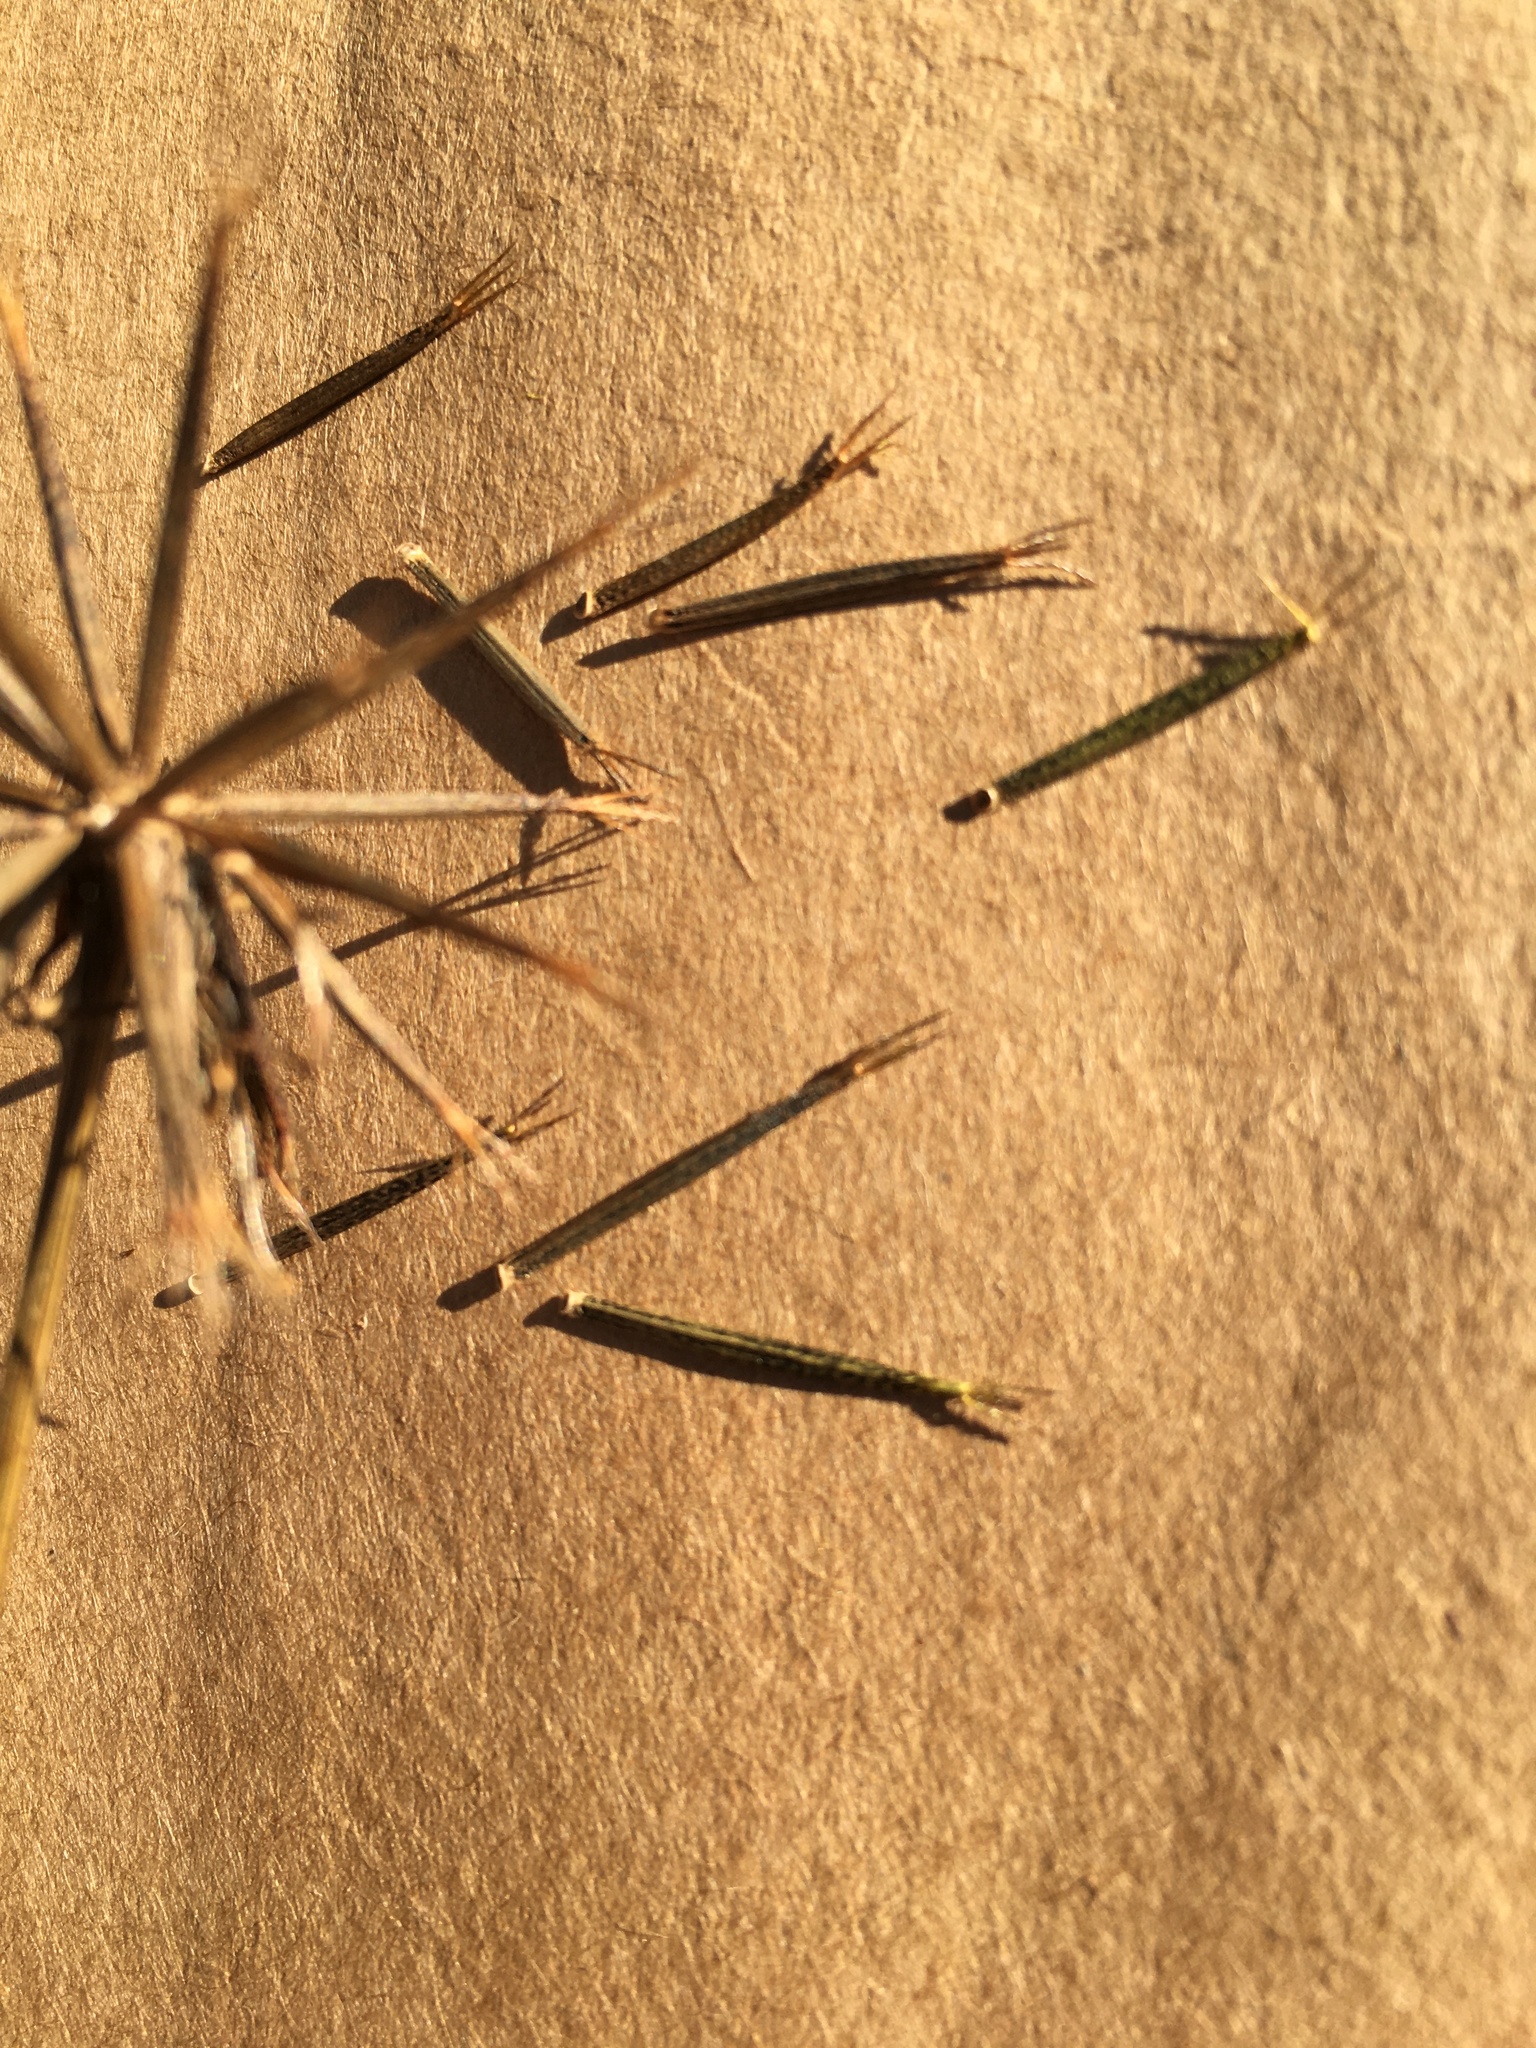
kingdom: Plantae
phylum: Tracheophyta
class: Magnoliopsida
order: Asterales
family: Asteraceae
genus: Bidens
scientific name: Bidens bipinnata
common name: Spanish-needles
